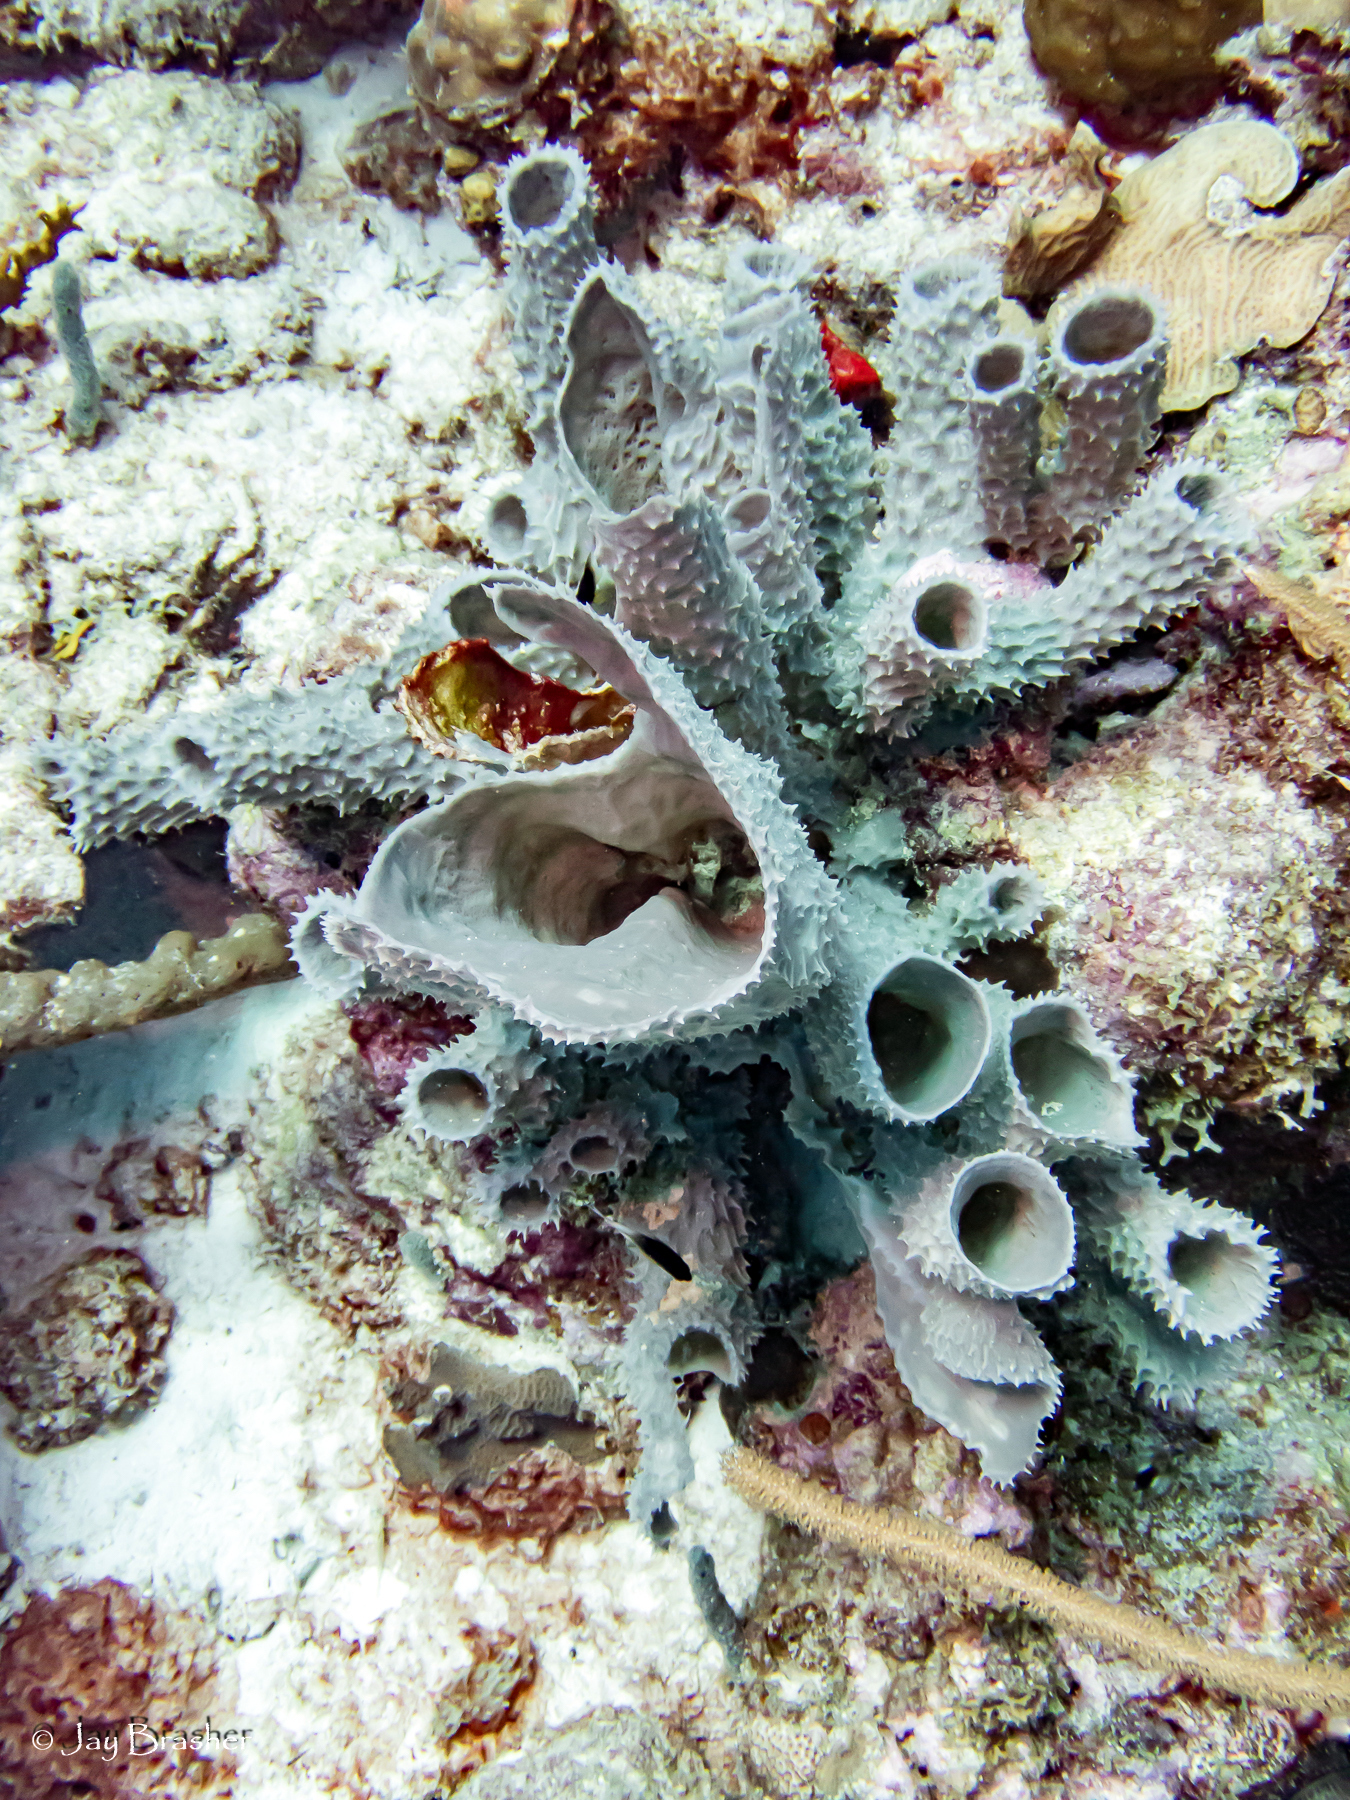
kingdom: Animalia
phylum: Porifera
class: Demospongiae
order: Haplosclerida
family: Callyspongiidae
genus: Callyspongia
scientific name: Callyspongia aculeata
